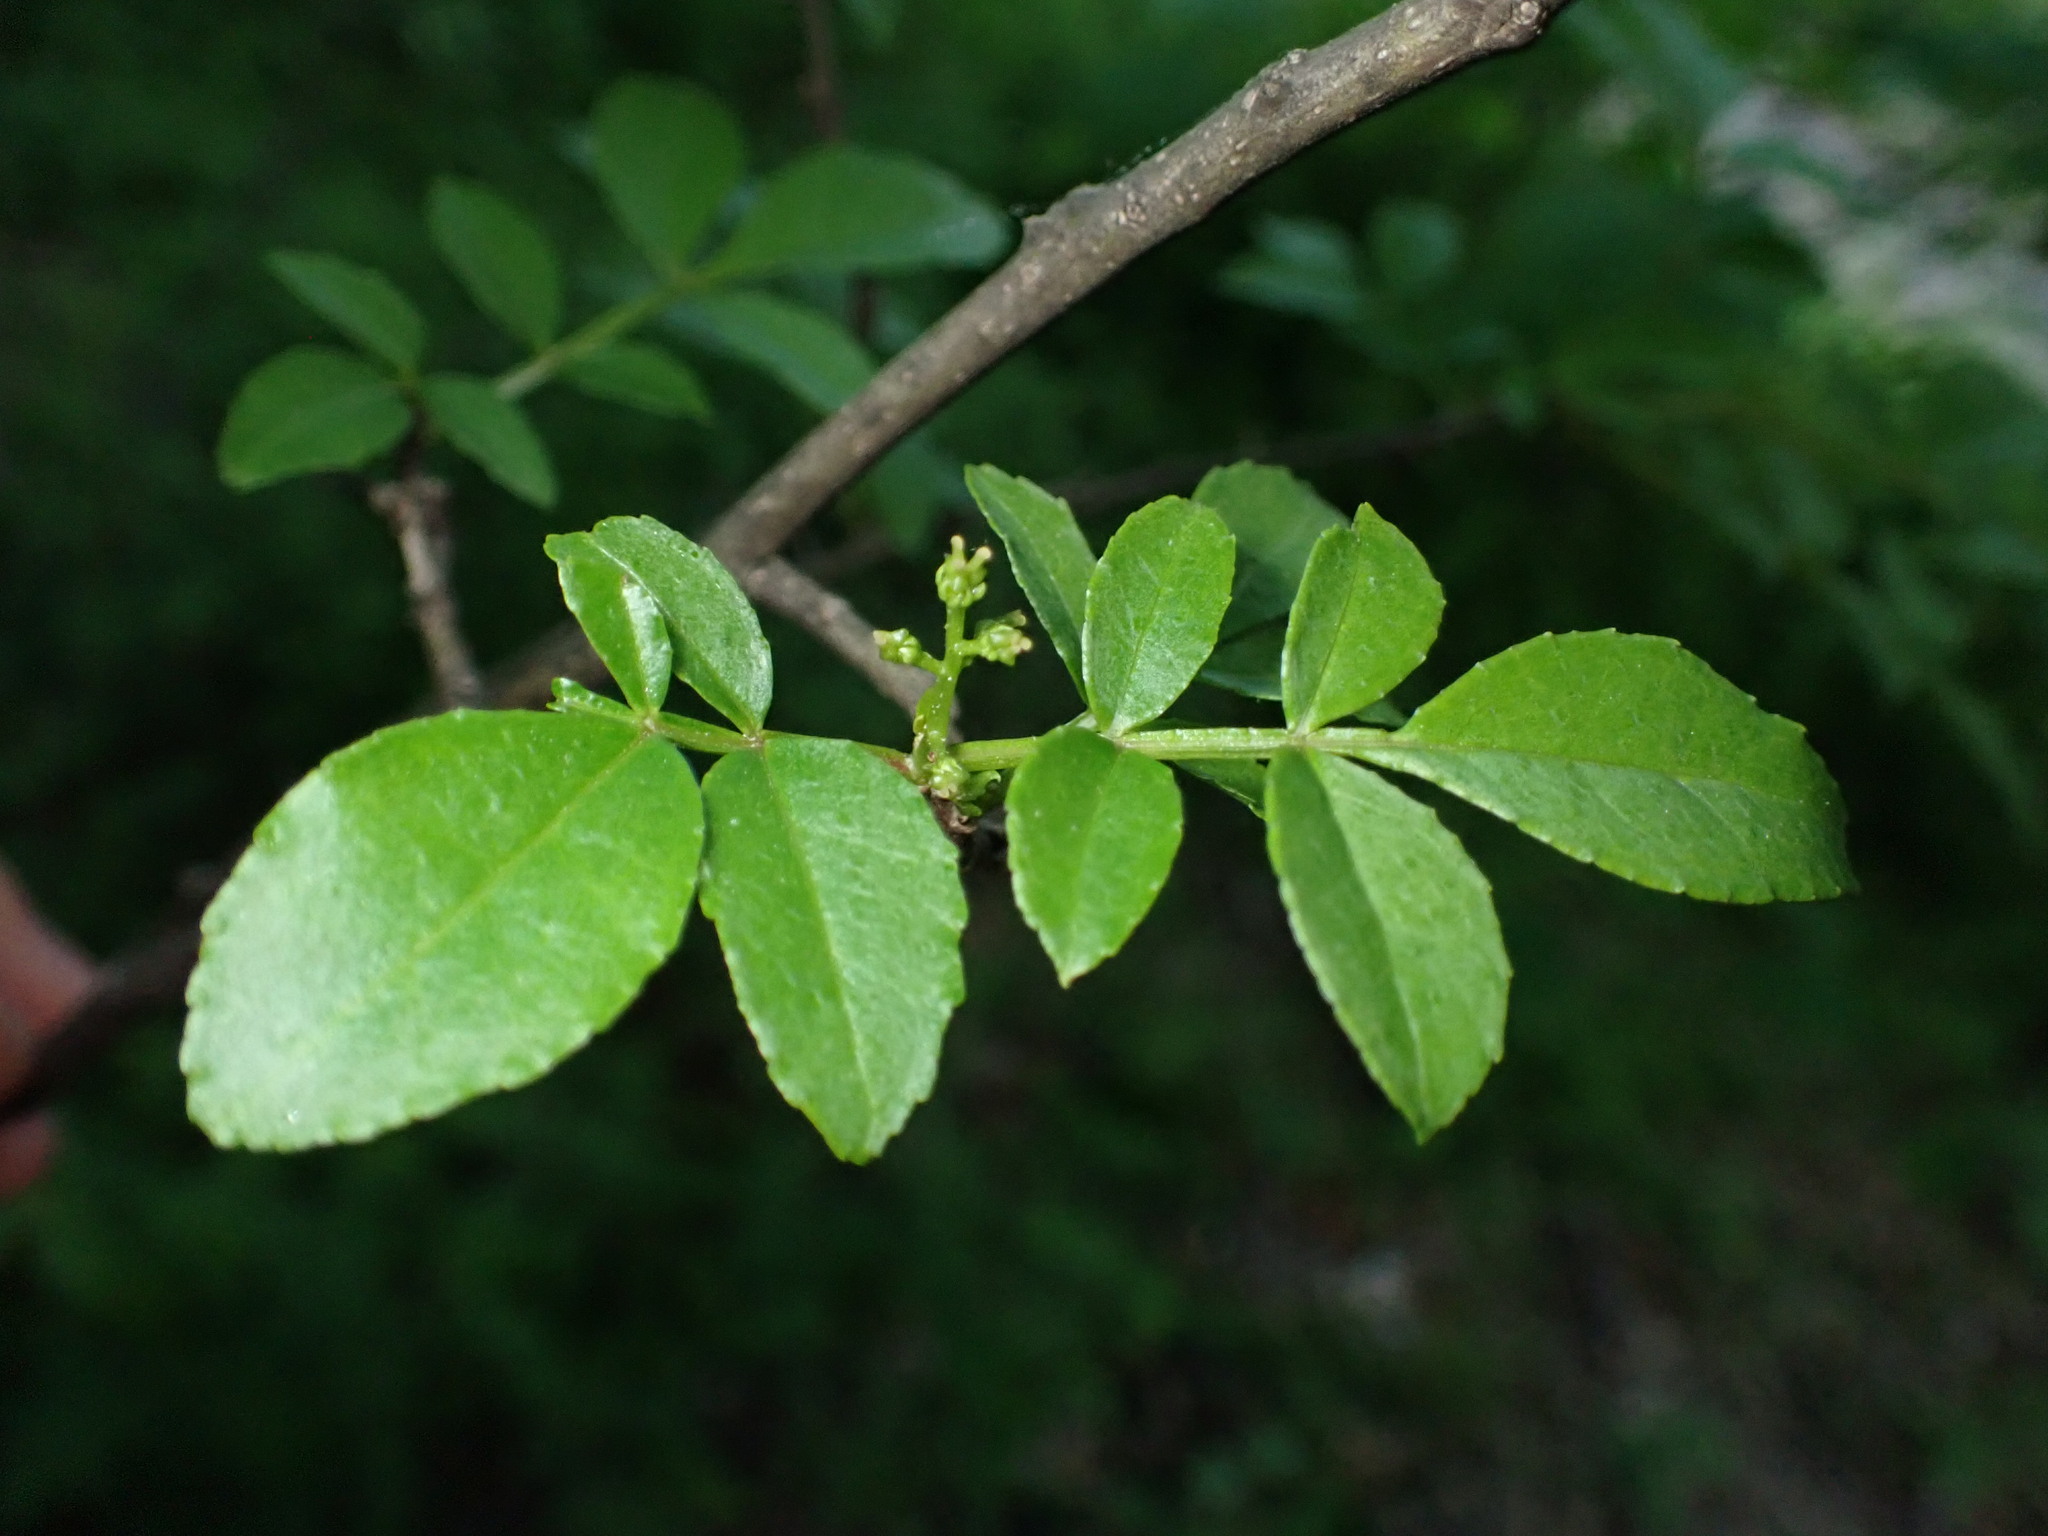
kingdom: Plantae
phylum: Tracheophyta
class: Magnoliopsida
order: Sapindales
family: Rutaceae
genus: Zanthoxylum
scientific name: Zanthoxylum americanum
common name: Northern prickly-ash
